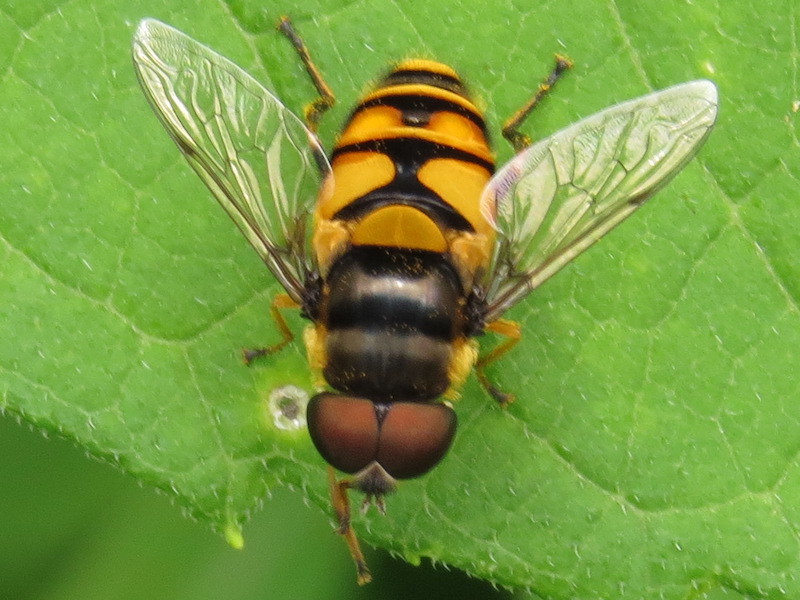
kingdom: Animalia
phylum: Arthropoda
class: Insecta
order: Diptera
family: Syrphidae
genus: Eristalis
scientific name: Eristalis transversa
